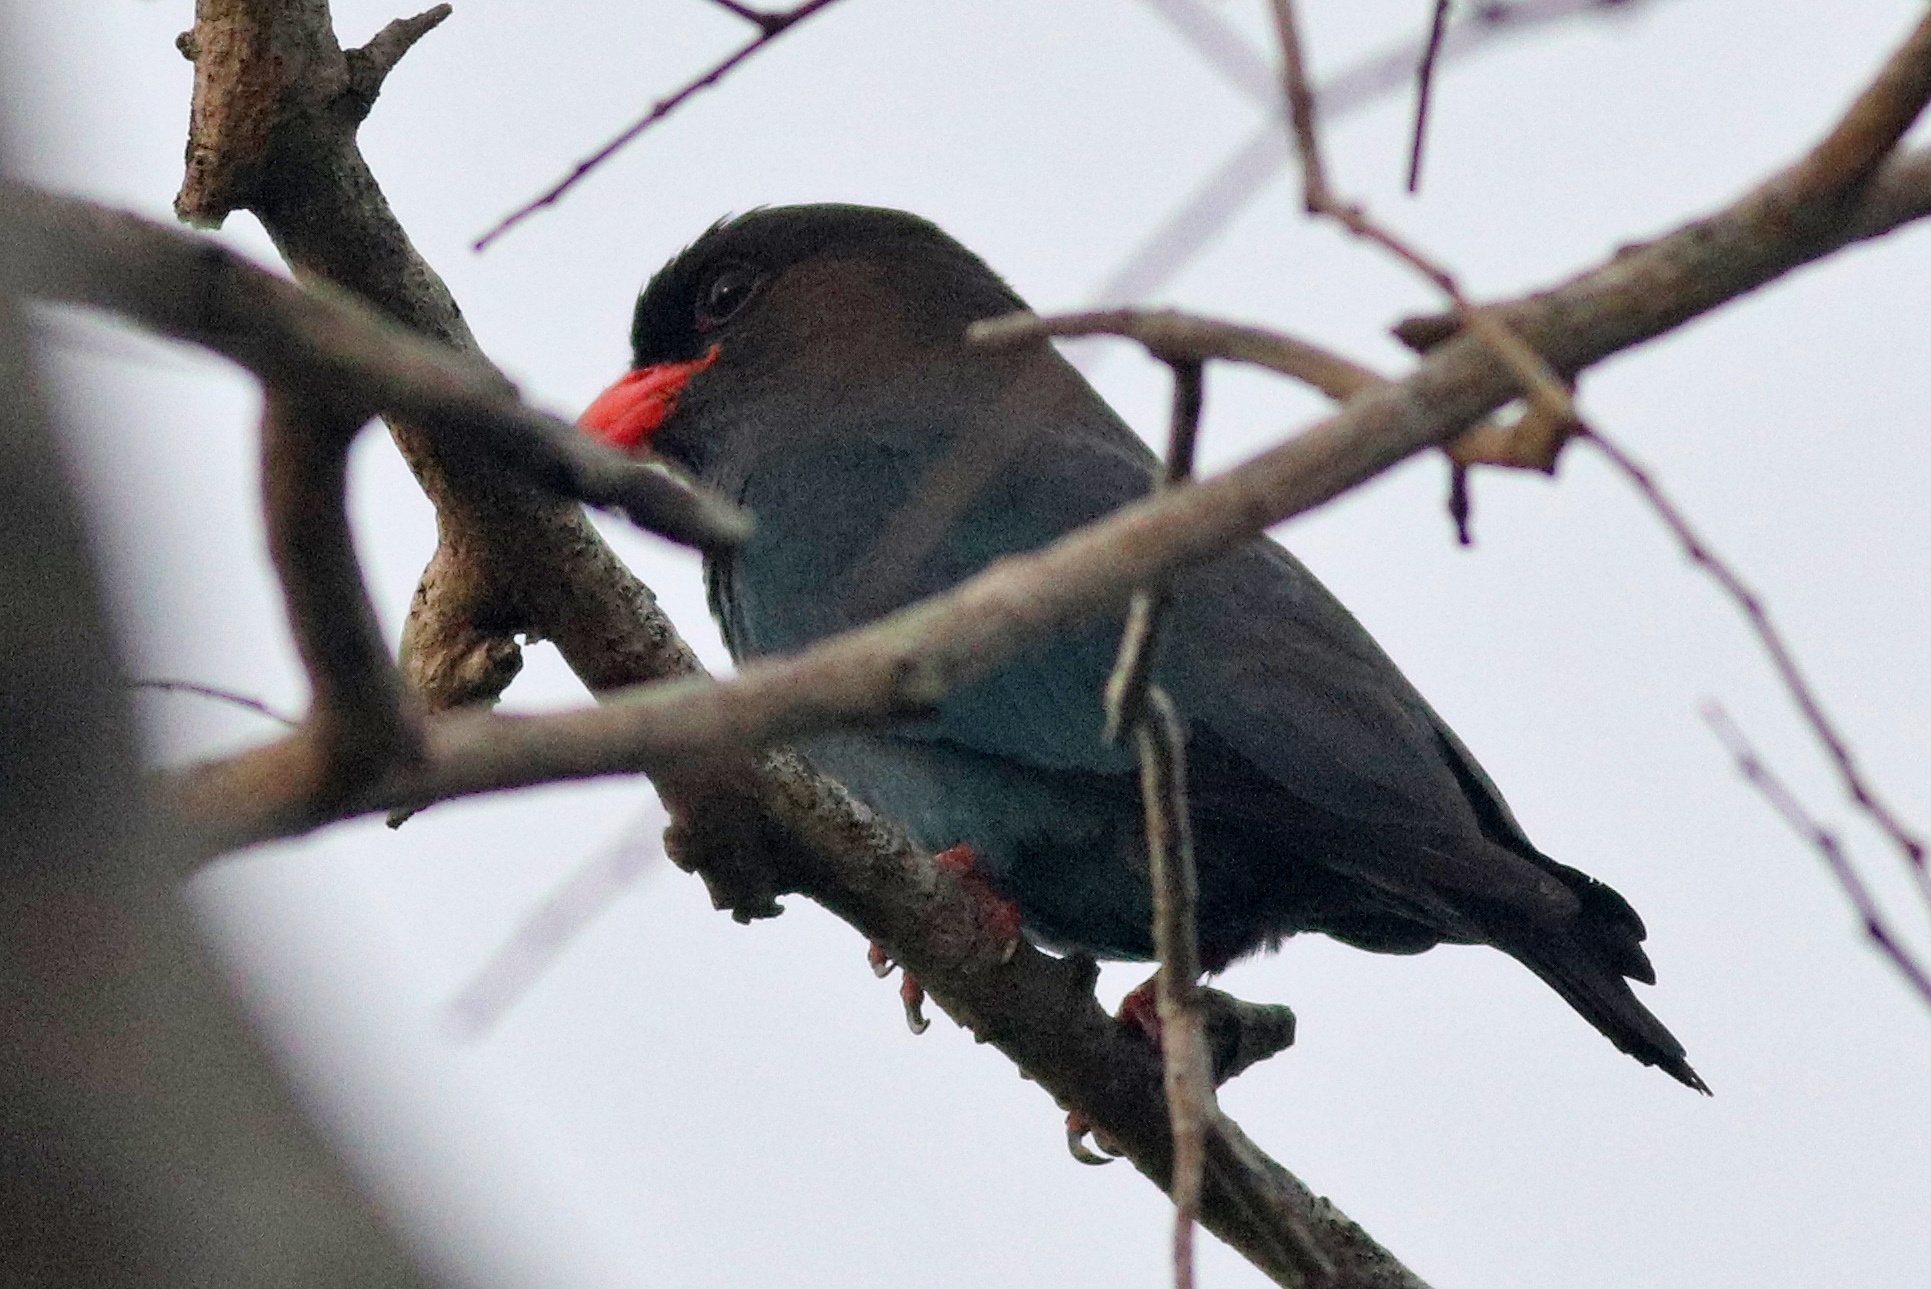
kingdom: Animalia
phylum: Chordata
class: Aves
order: Coraciiformes
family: Coraciidae
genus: Eurystomus
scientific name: Eurystomus orientalis
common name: Oriental dollarbird
